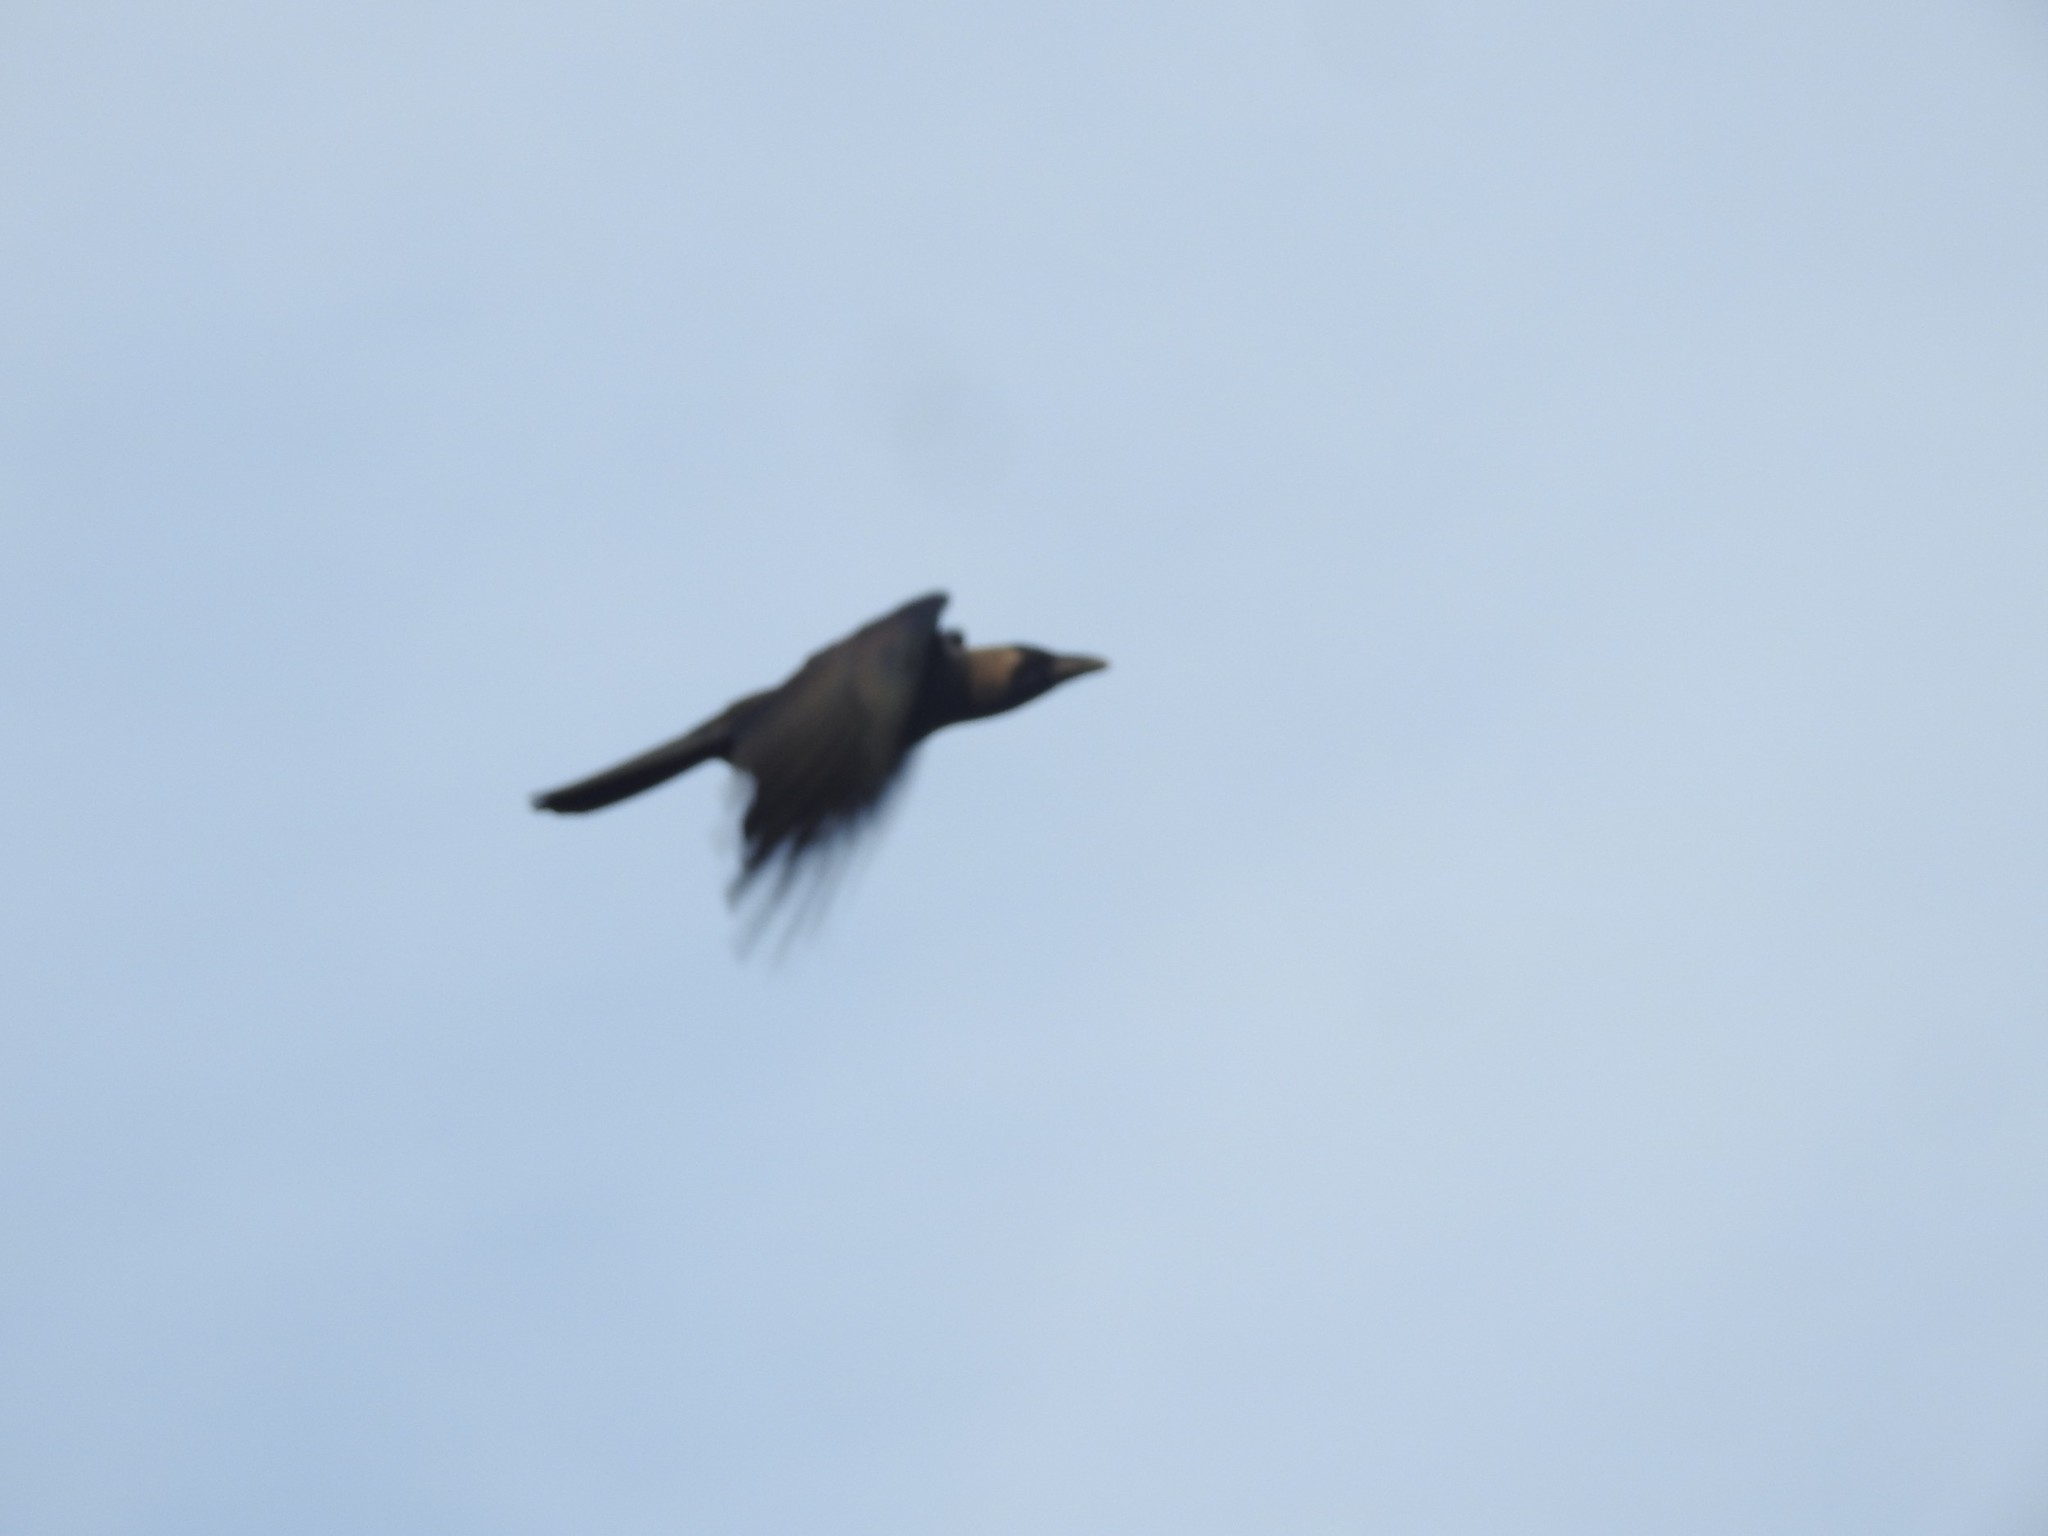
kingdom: Animalia
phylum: Chordata
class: Aves
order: Passeriformes
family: Corvidae
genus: Corvus
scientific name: Corvus splendens
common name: House crow
